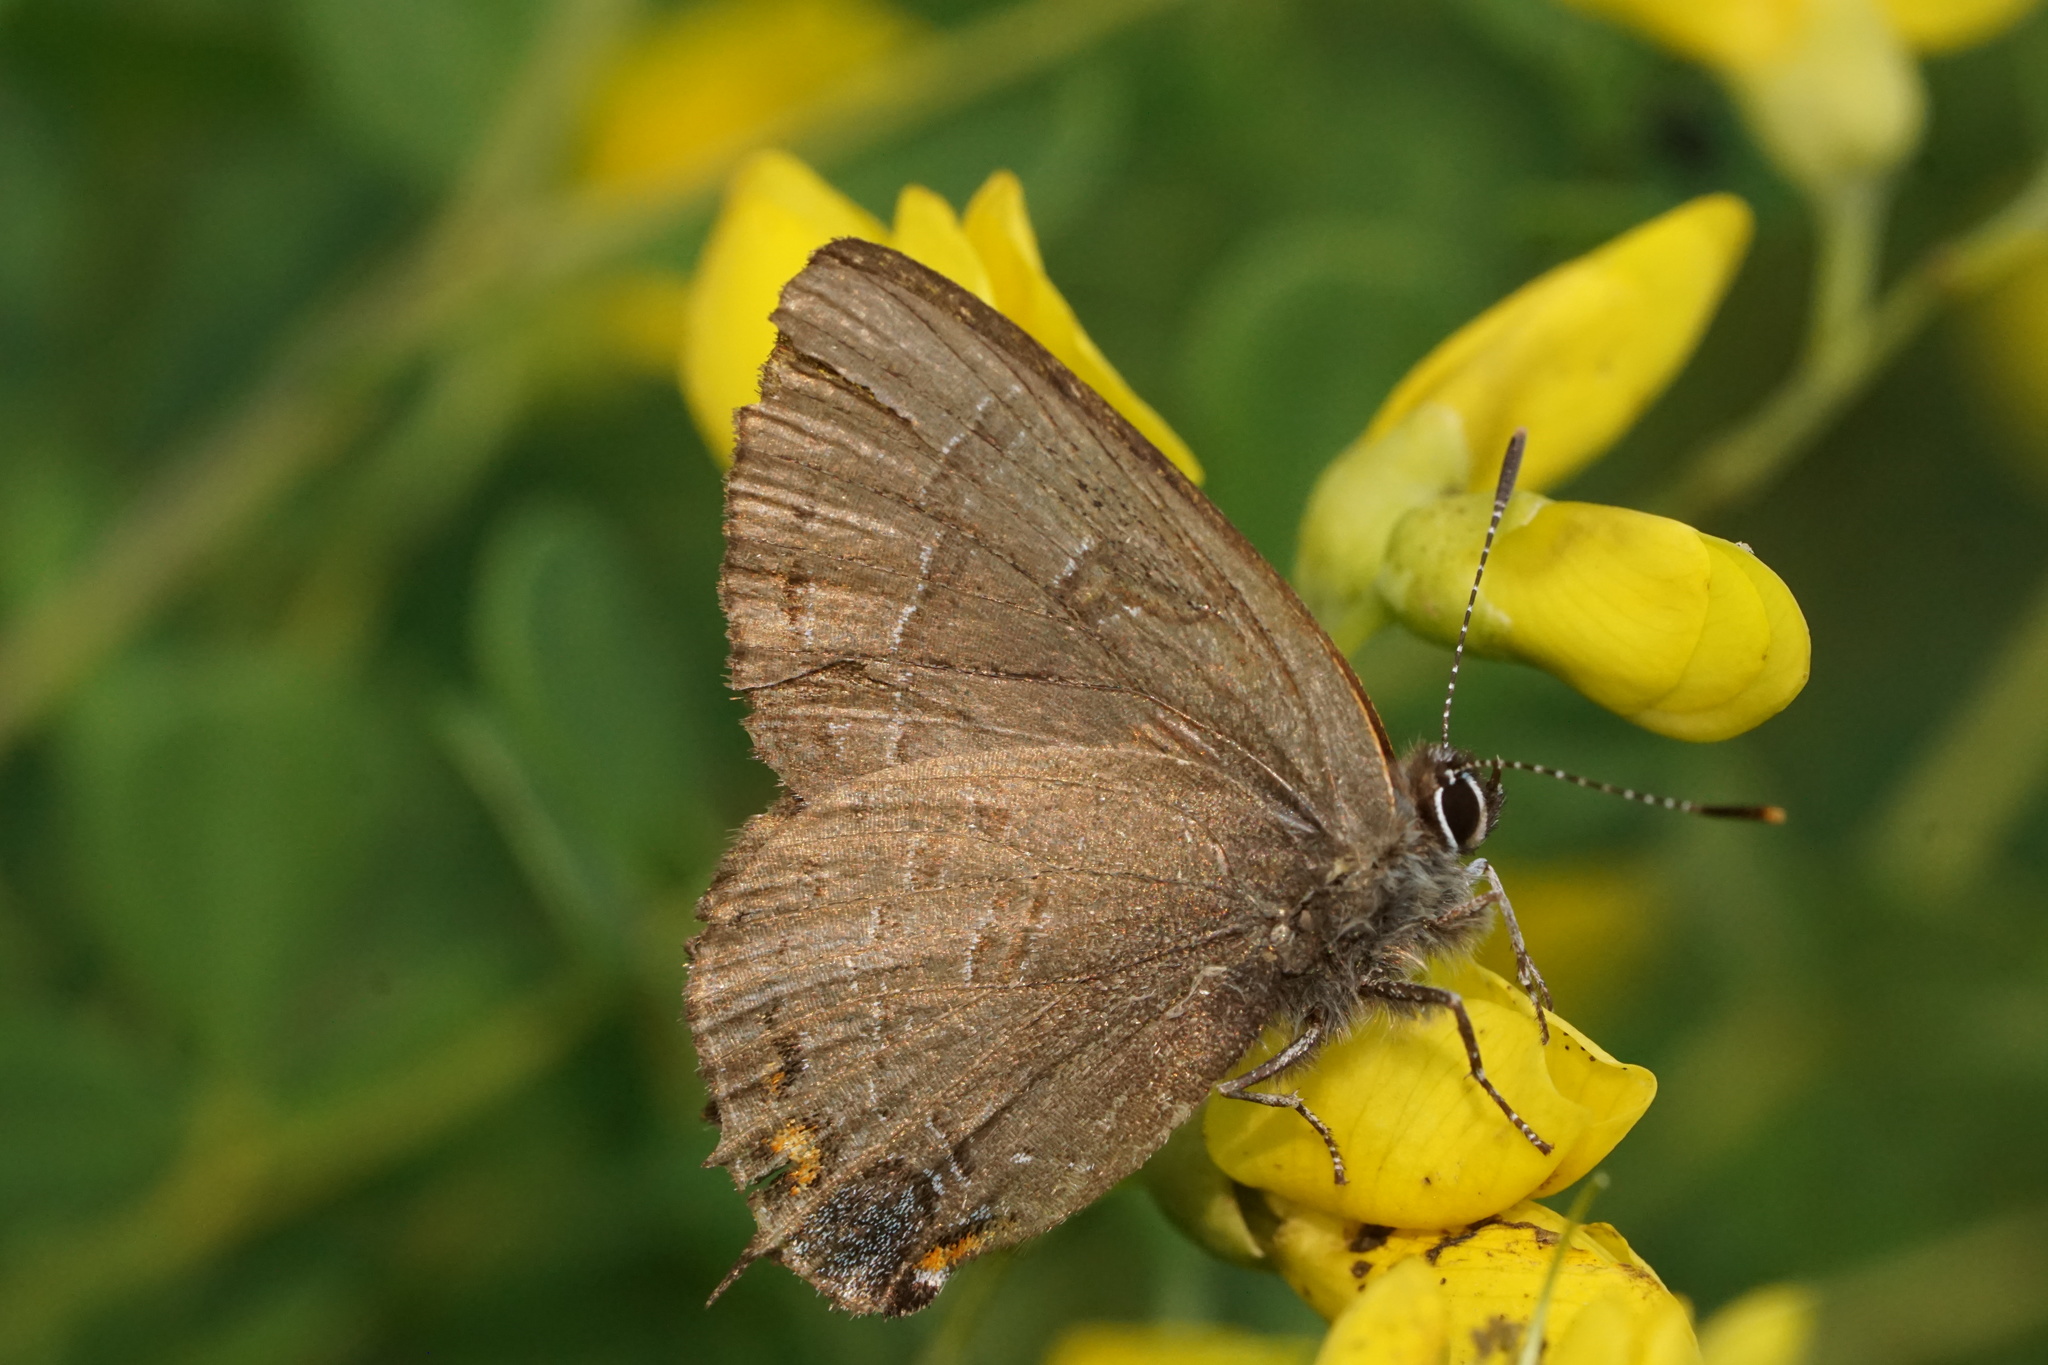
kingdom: Animalia
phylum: Arthropoda
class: Insecta
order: Lepidoptera
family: Lycaenidae
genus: Satyrium
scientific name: Satyrium calanus
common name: Banded hairstreak
